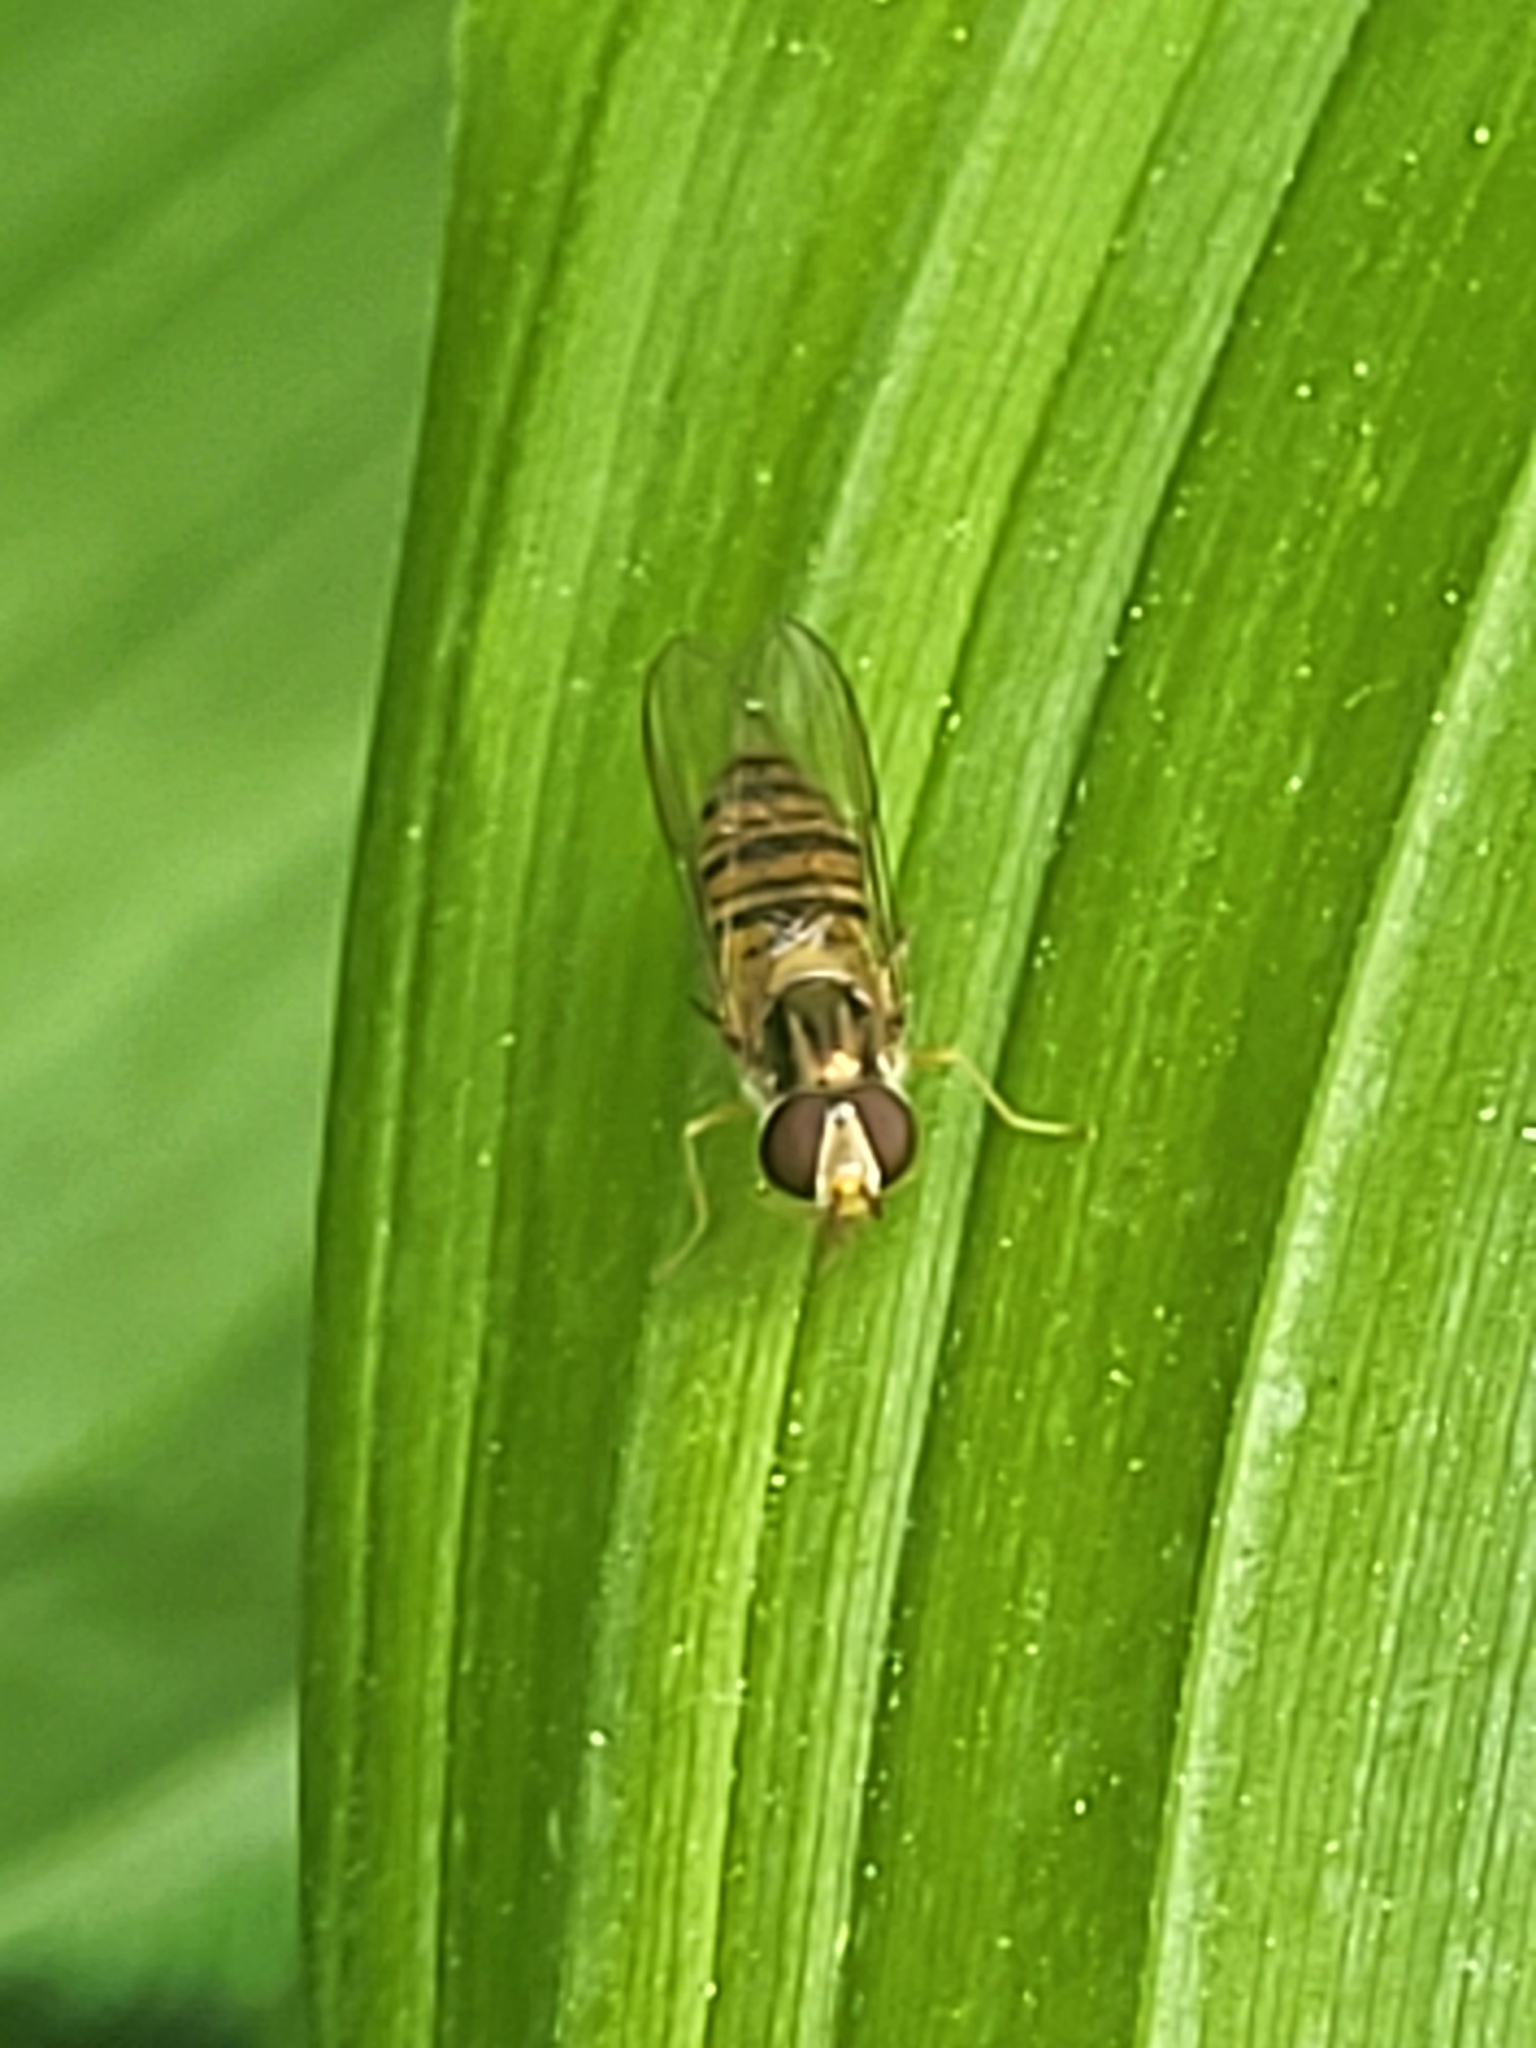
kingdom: Animalia
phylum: Arthropoda
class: Insecta
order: Diptera
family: Syrphidae
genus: Episyrphus
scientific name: Episyrphus balteatus
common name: Marmalade hoverfly
